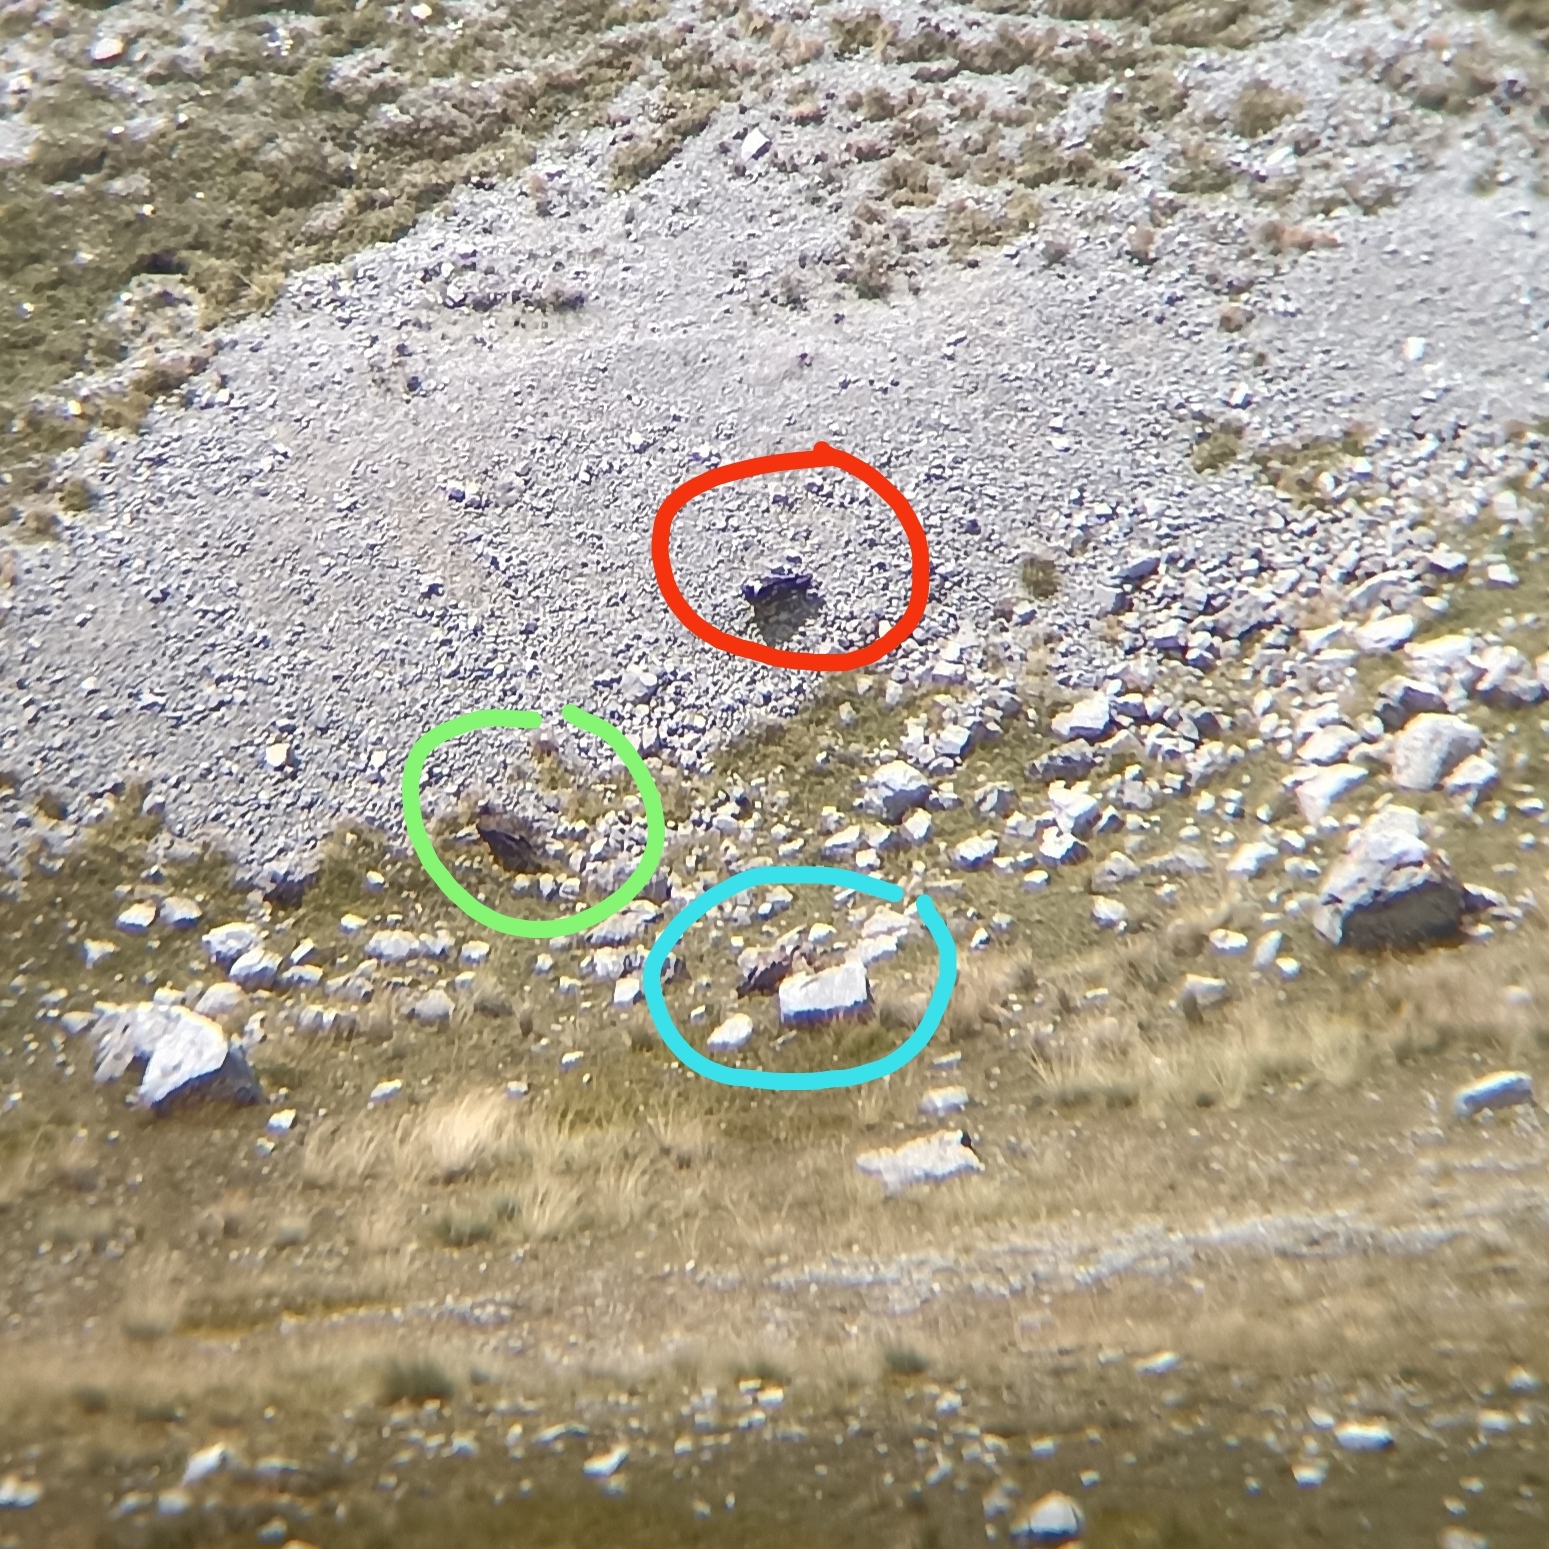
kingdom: Animalia
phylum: Chordata
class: Aves
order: Accipitriformes
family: Accipitridae
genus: Aegypius
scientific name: Aegypius monachus
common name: Cinereous vulture
